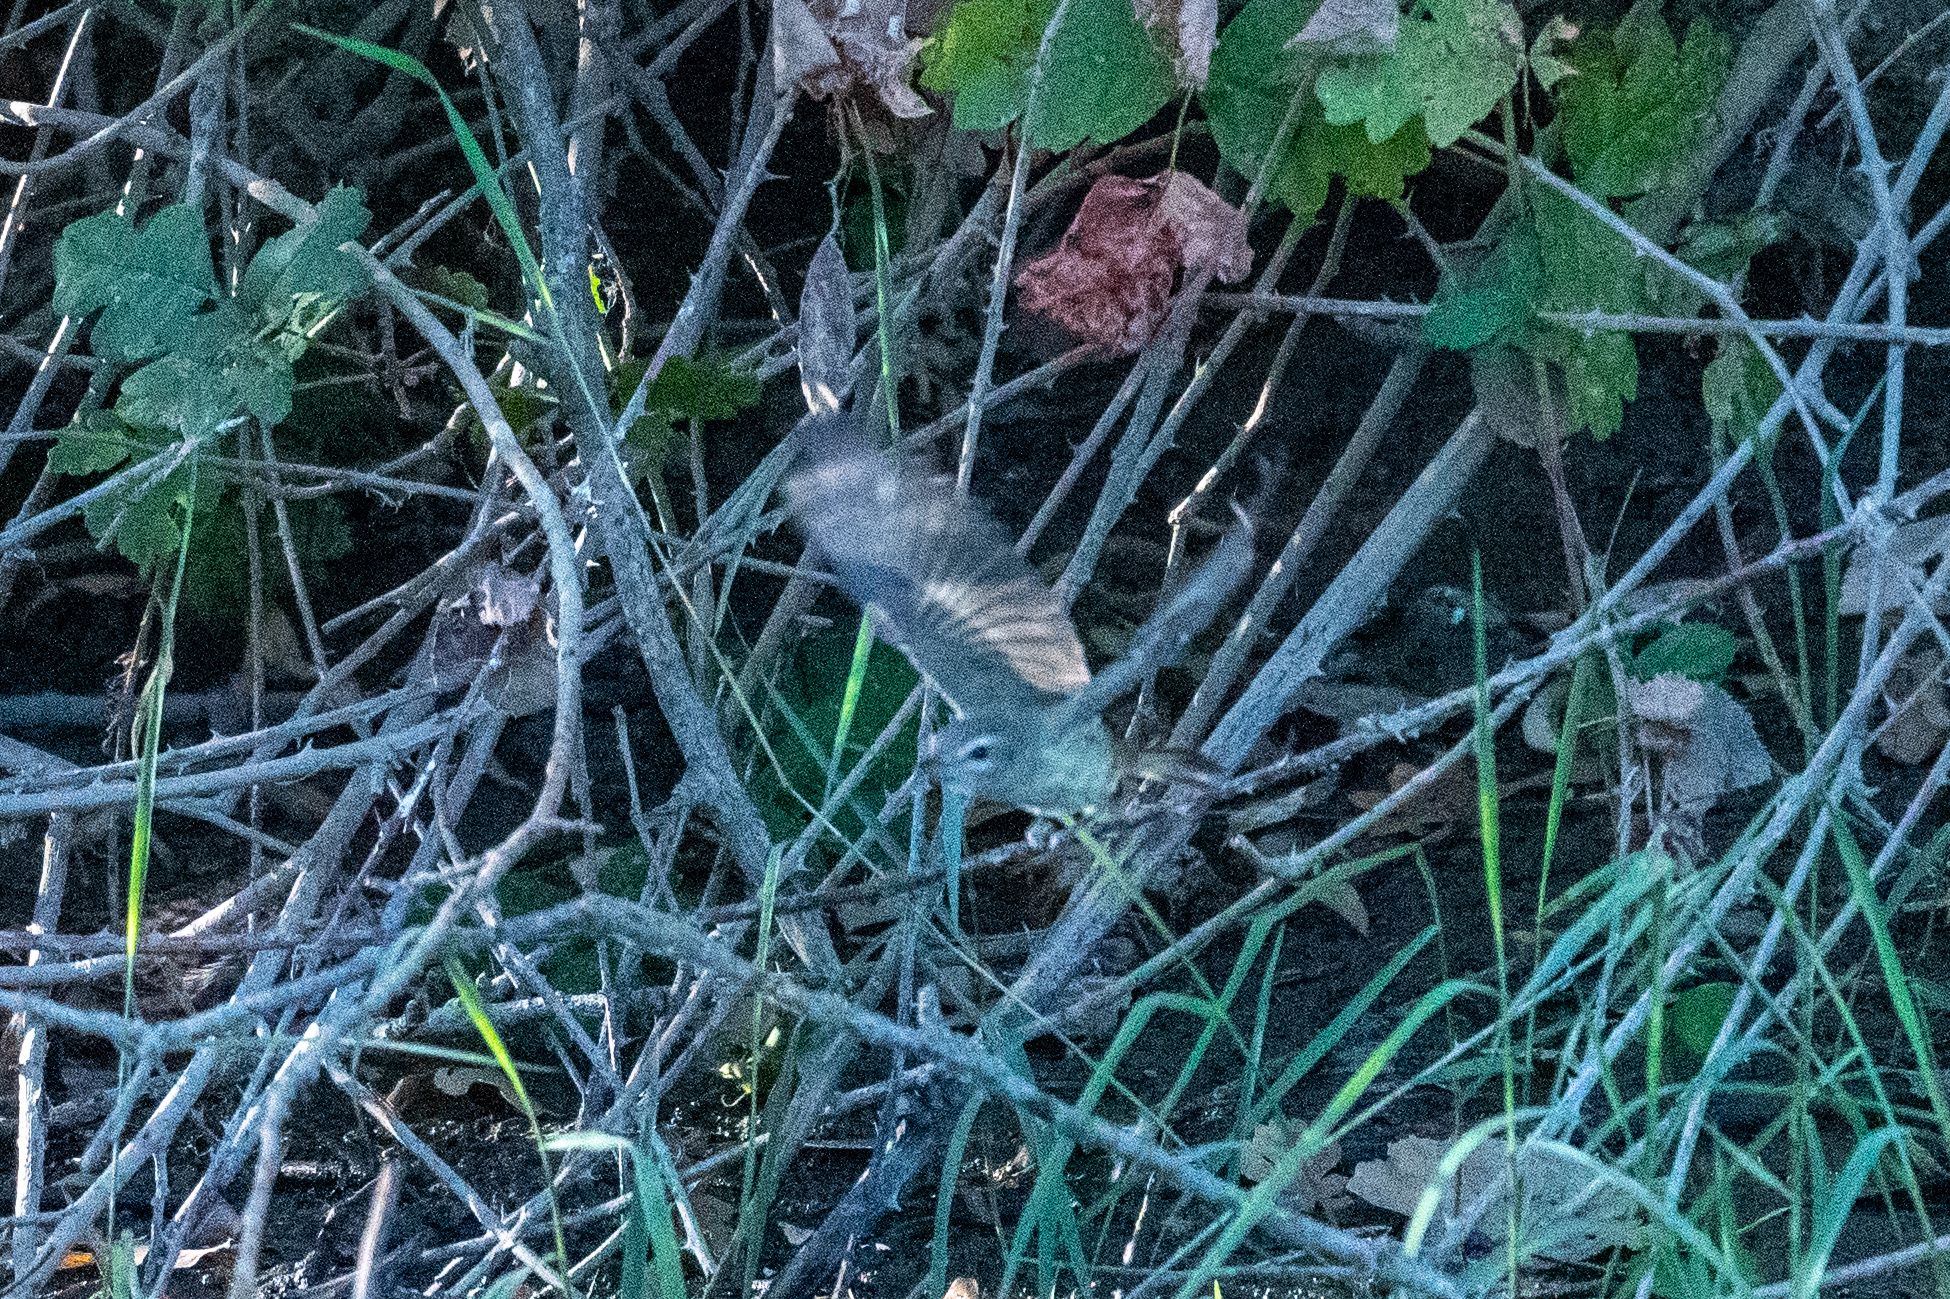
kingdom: Animalia
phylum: Chordata
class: Aves
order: Passeriformes
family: Vireonidae
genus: Vireo
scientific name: Vireo gilvus
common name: Warbling vireo
